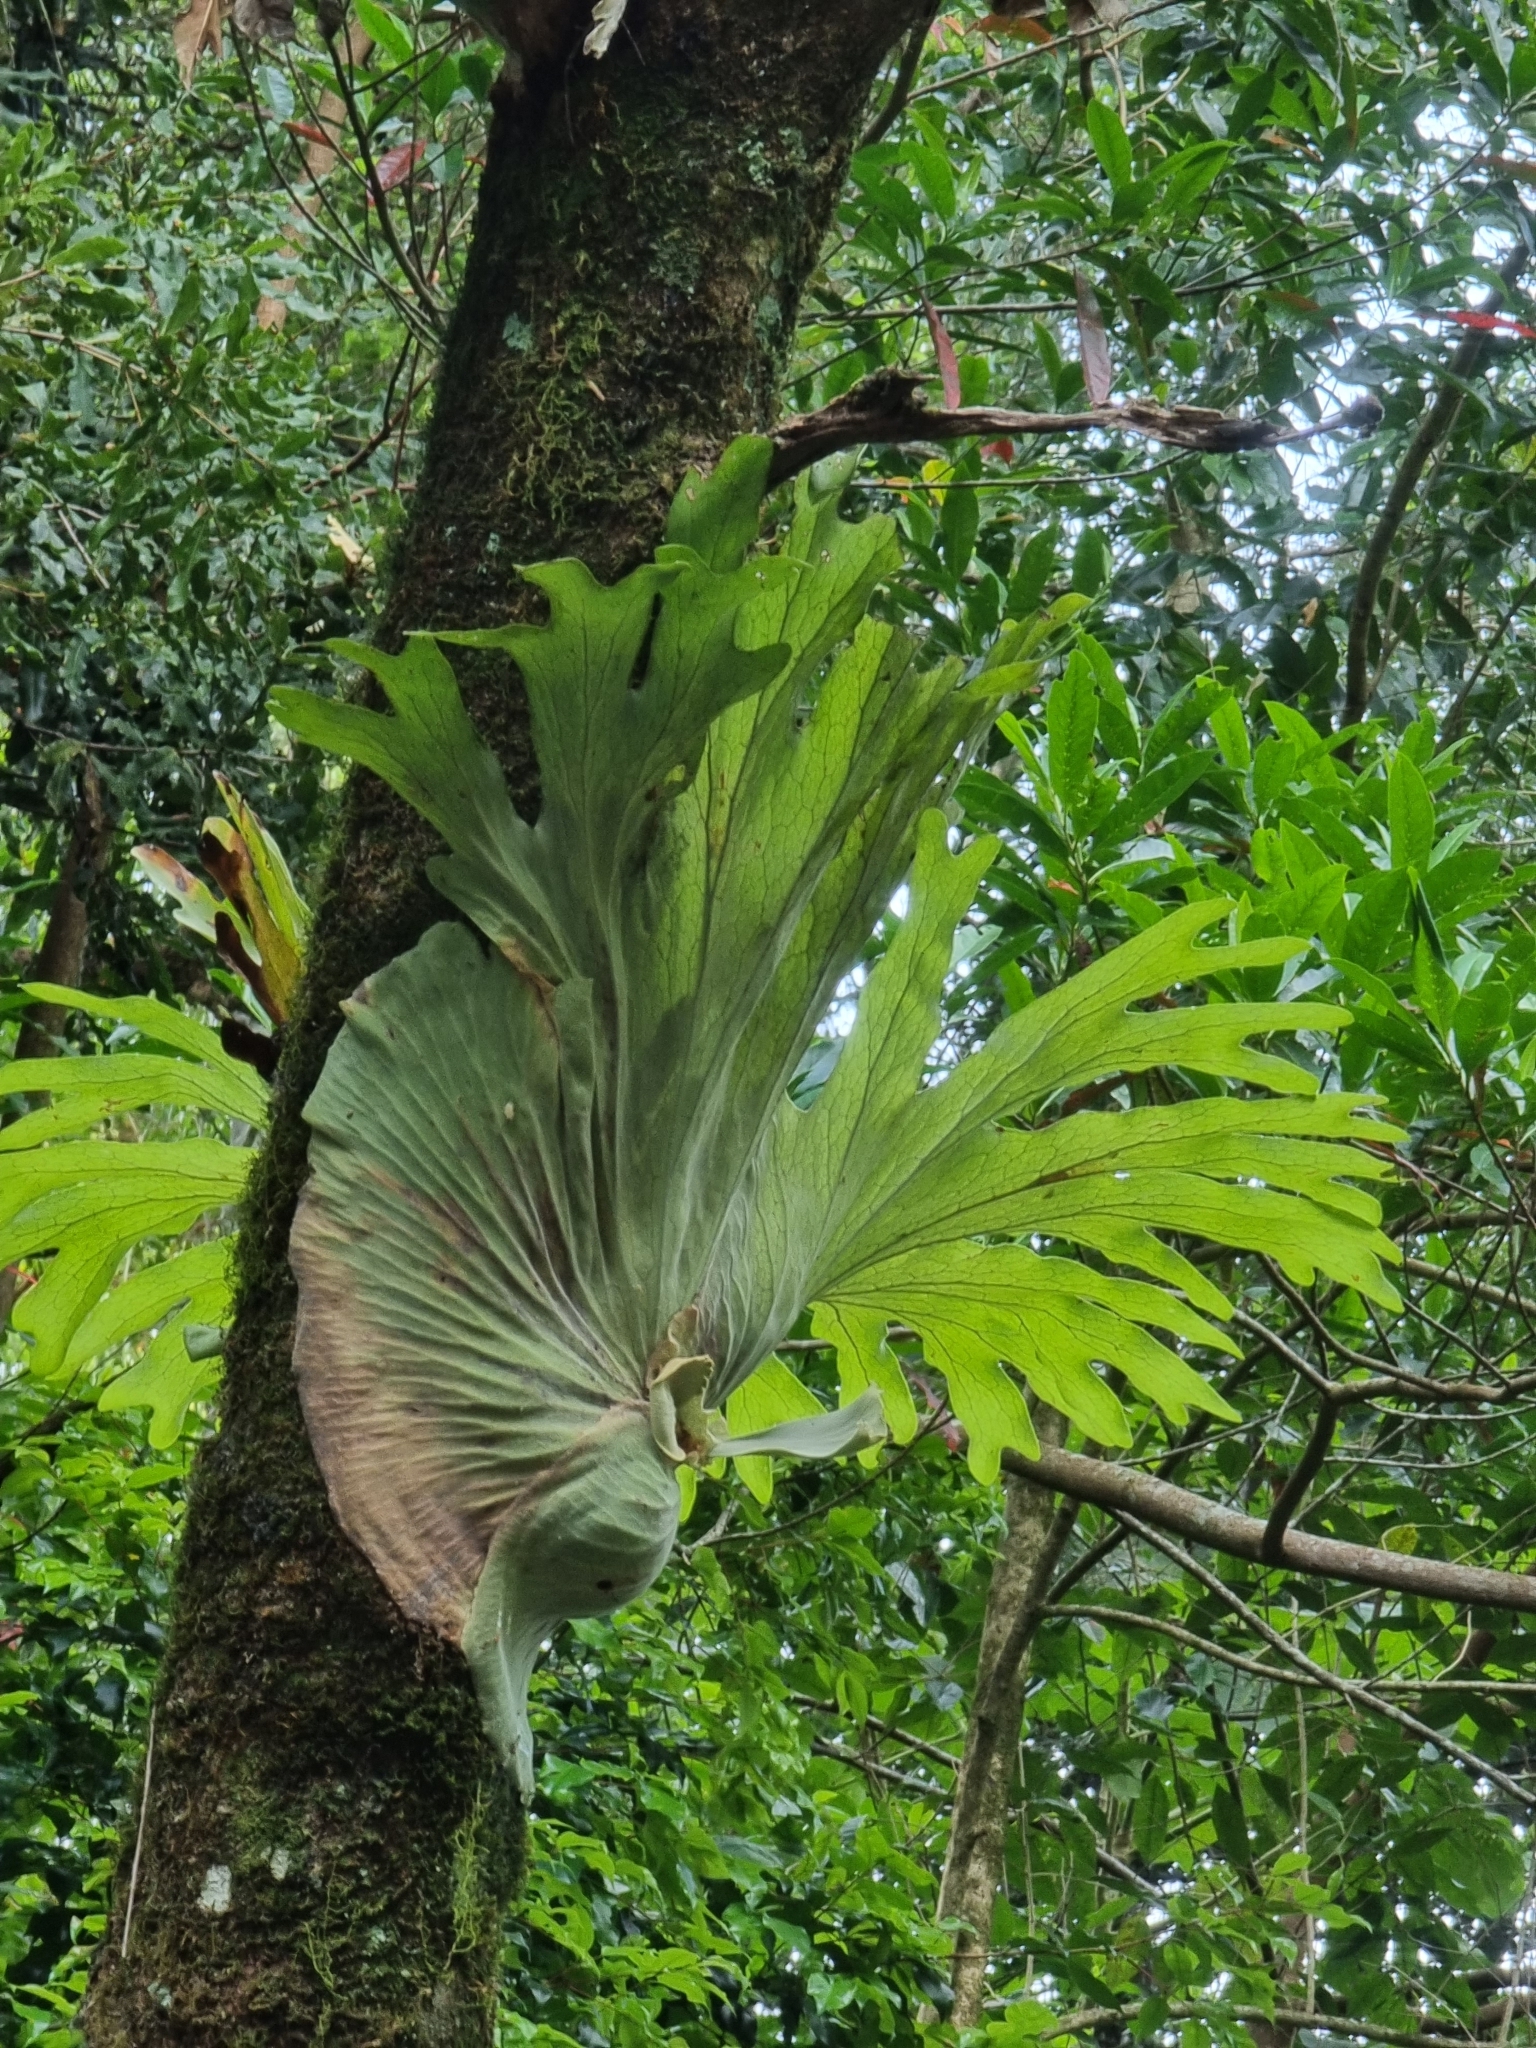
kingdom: Plantae
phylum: Tracheophyta
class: Polypodiopsida
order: Polypodiales
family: Polypodiaceae
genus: Platycerium
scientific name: Platycerium superbum
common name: Staghorn fern
